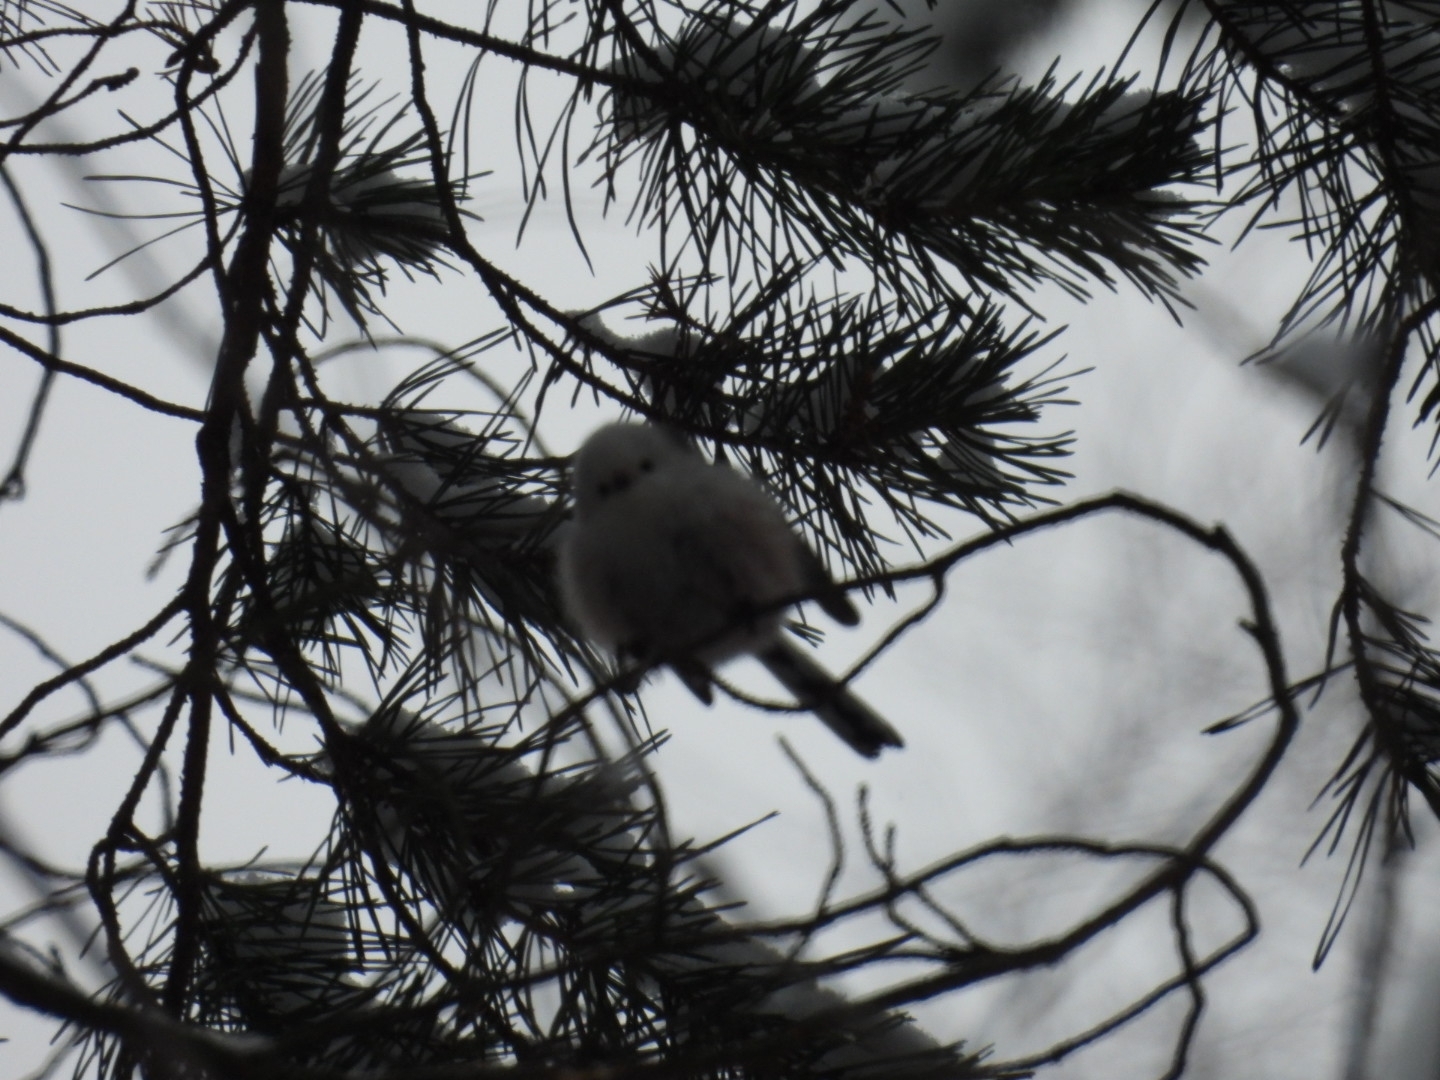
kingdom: Animalia
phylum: Chordata
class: Aves
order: Passeriformes
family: Aegithalidae
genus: Aegithalos
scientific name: Aegithalos caudatus
